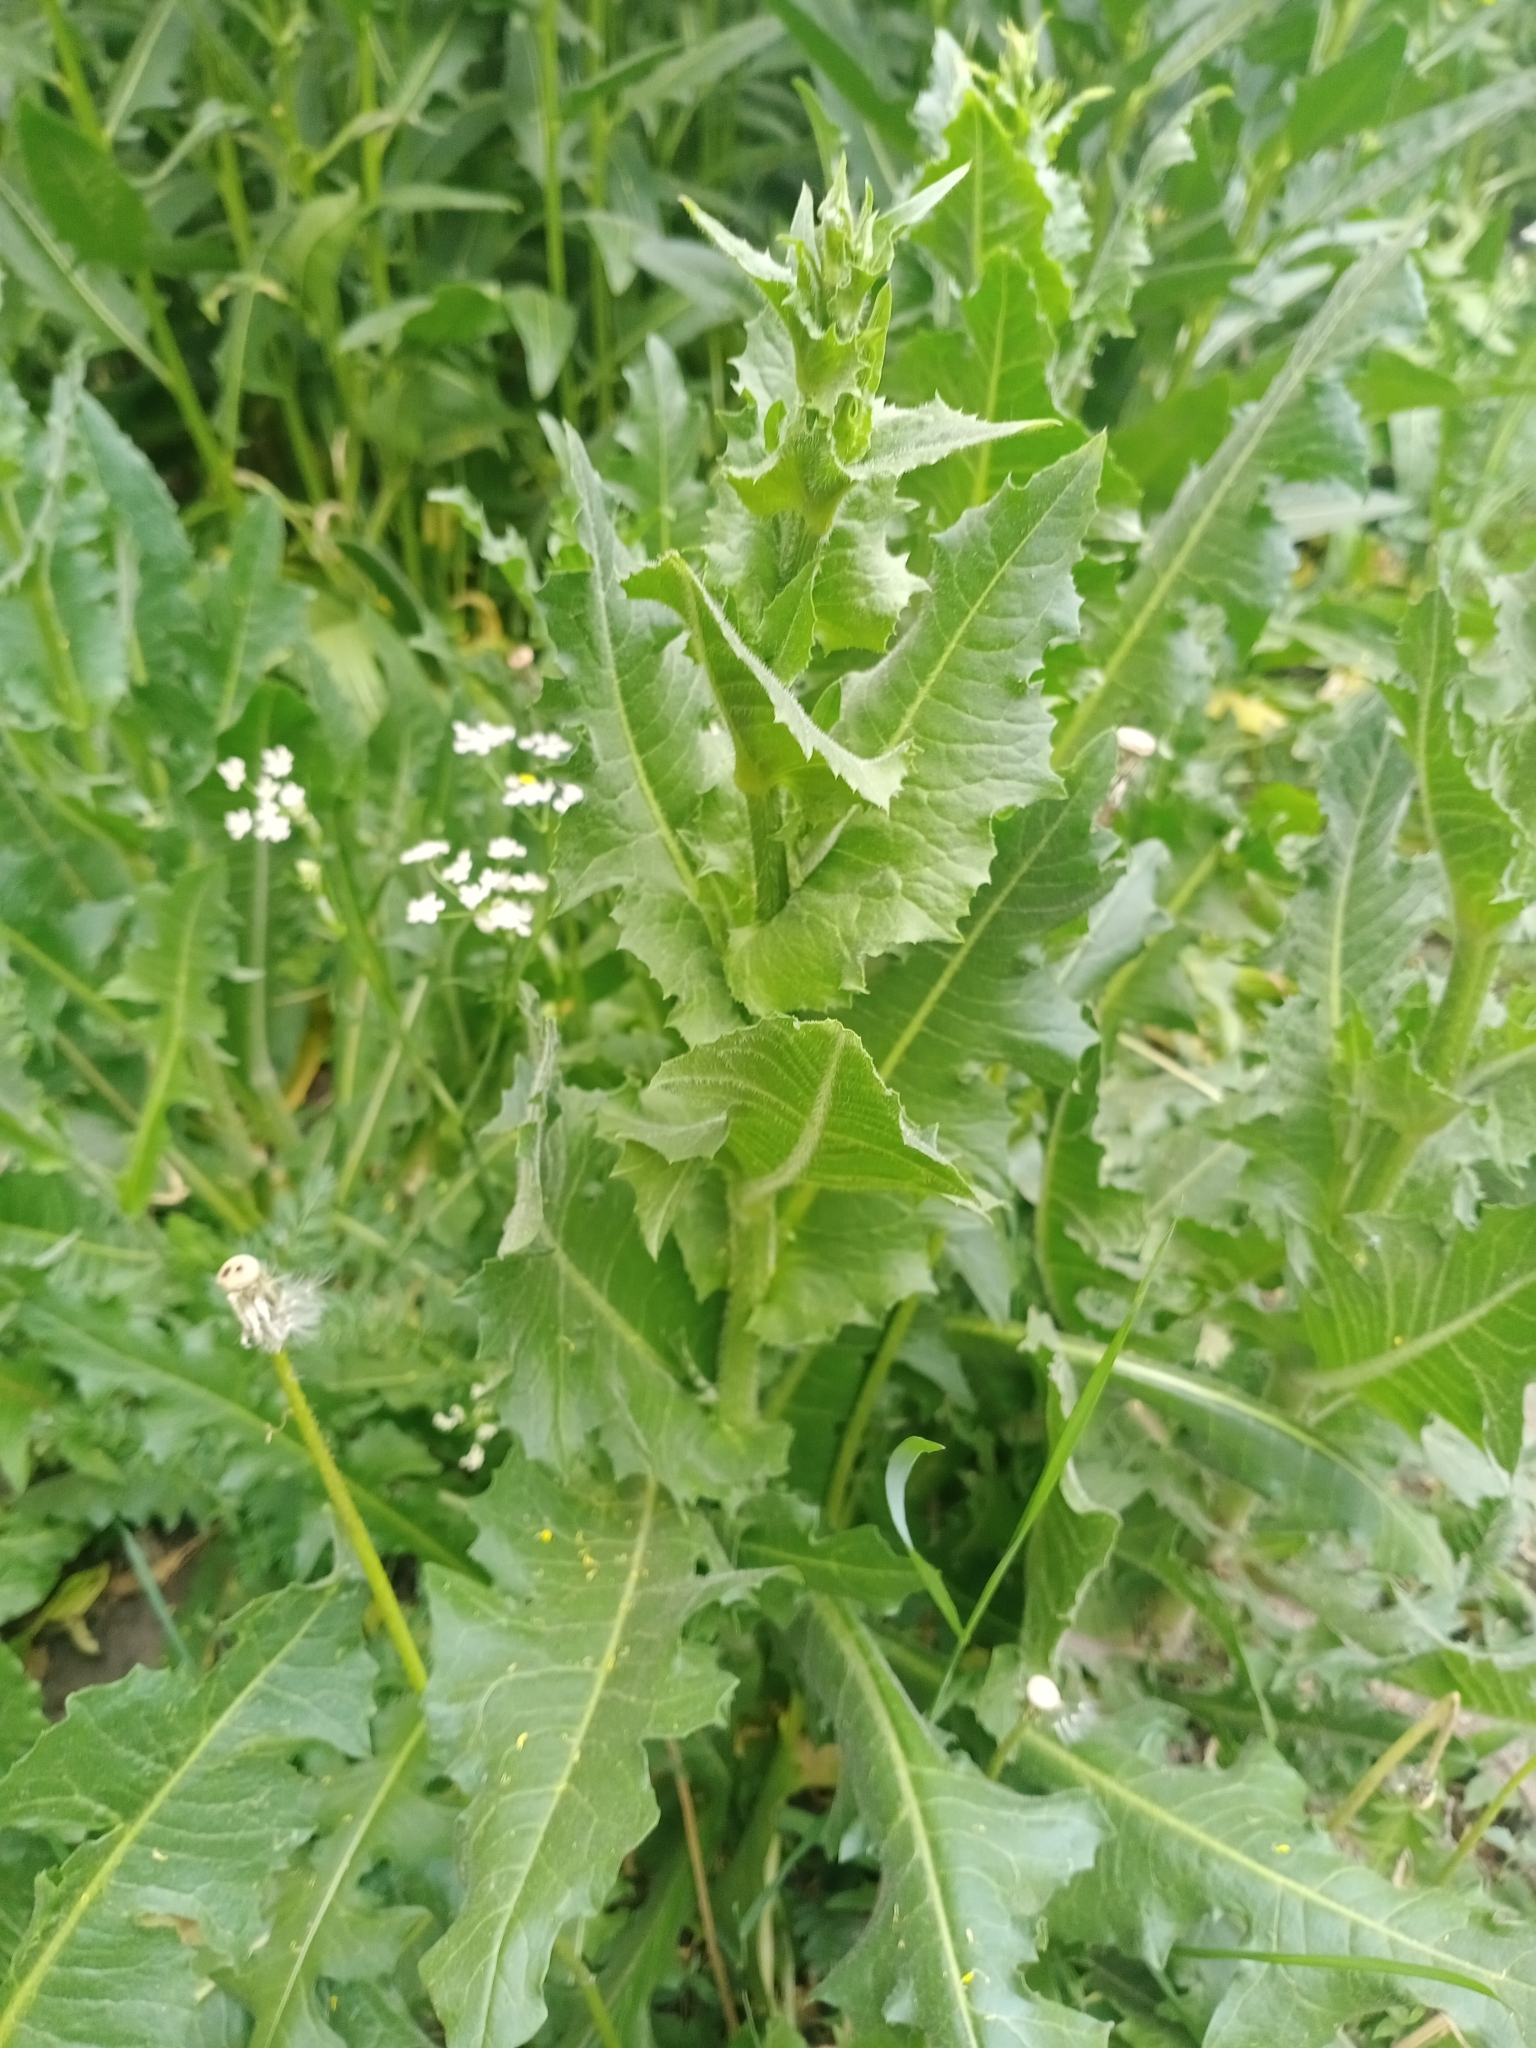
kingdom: Plantae
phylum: Tracheophyta
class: Magnoliopsida
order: Asterales
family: Asteraceae
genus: Cichorium
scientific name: Cichorium intybus
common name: Chicory
